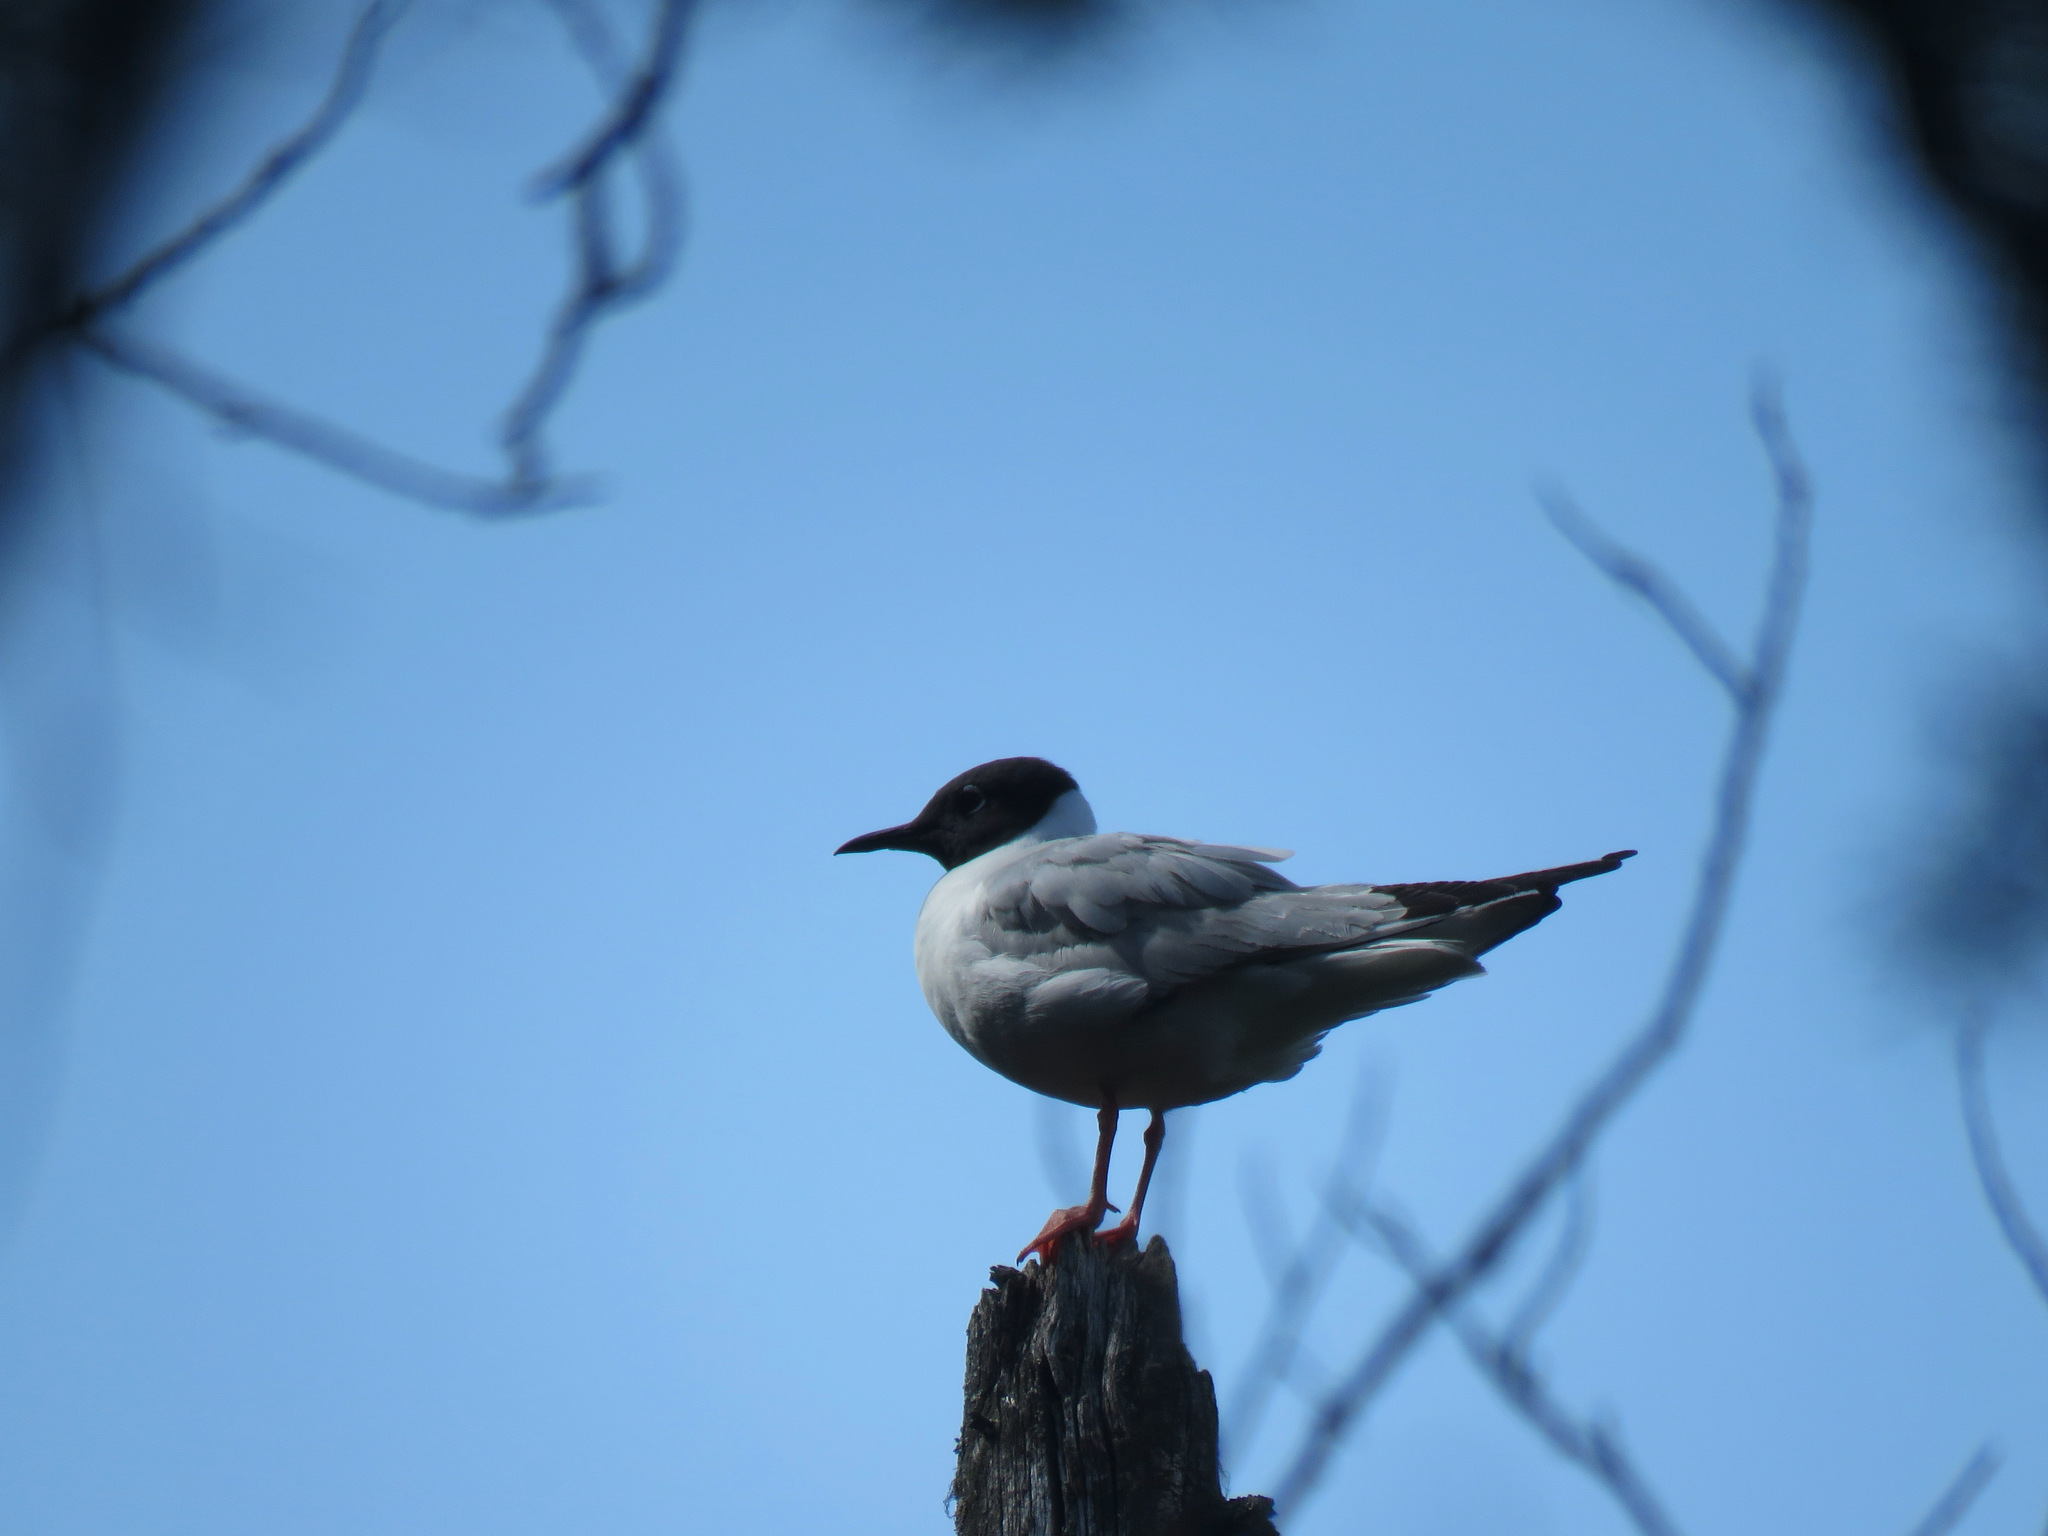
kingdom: Animalia
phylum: Chordata
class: Aves
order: Charadriiformes
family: Laridae
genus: Chroicocephalus
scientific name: Chroicocephalus philadelphia
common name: Bonaparte's gull
